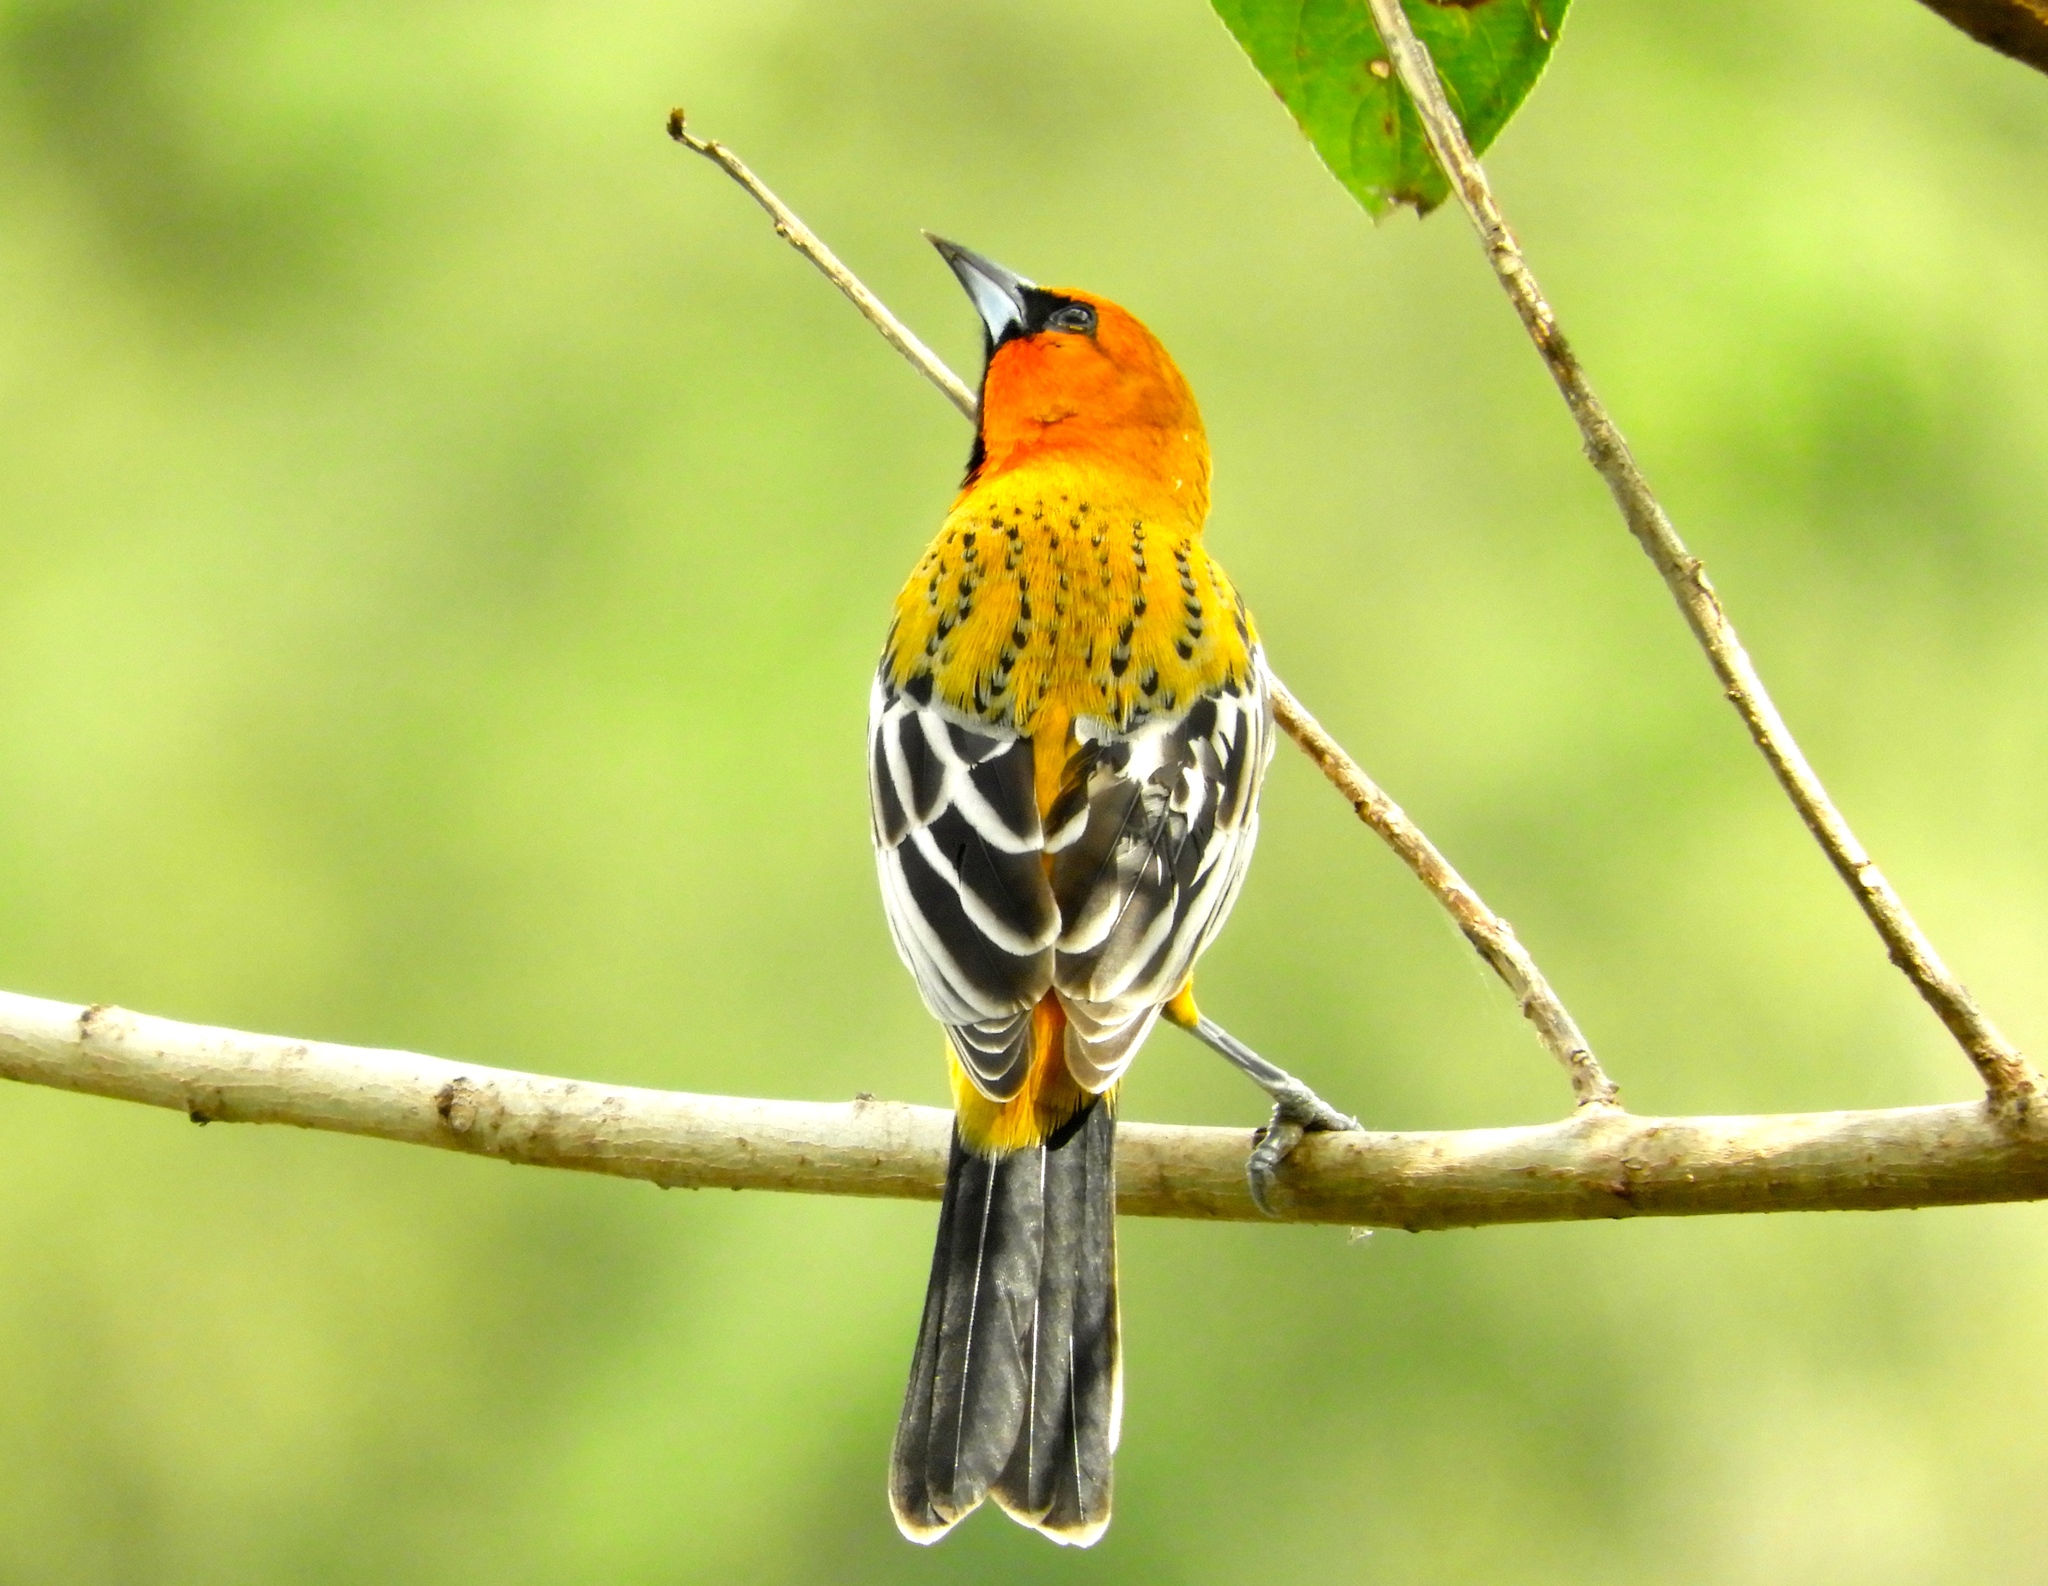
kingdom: Animalia
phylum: Chordata
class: Aves
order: Passeriformes
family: Icteridae
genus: Icterus
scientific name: Icterus pustulatus
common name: Streak-backed oriole
